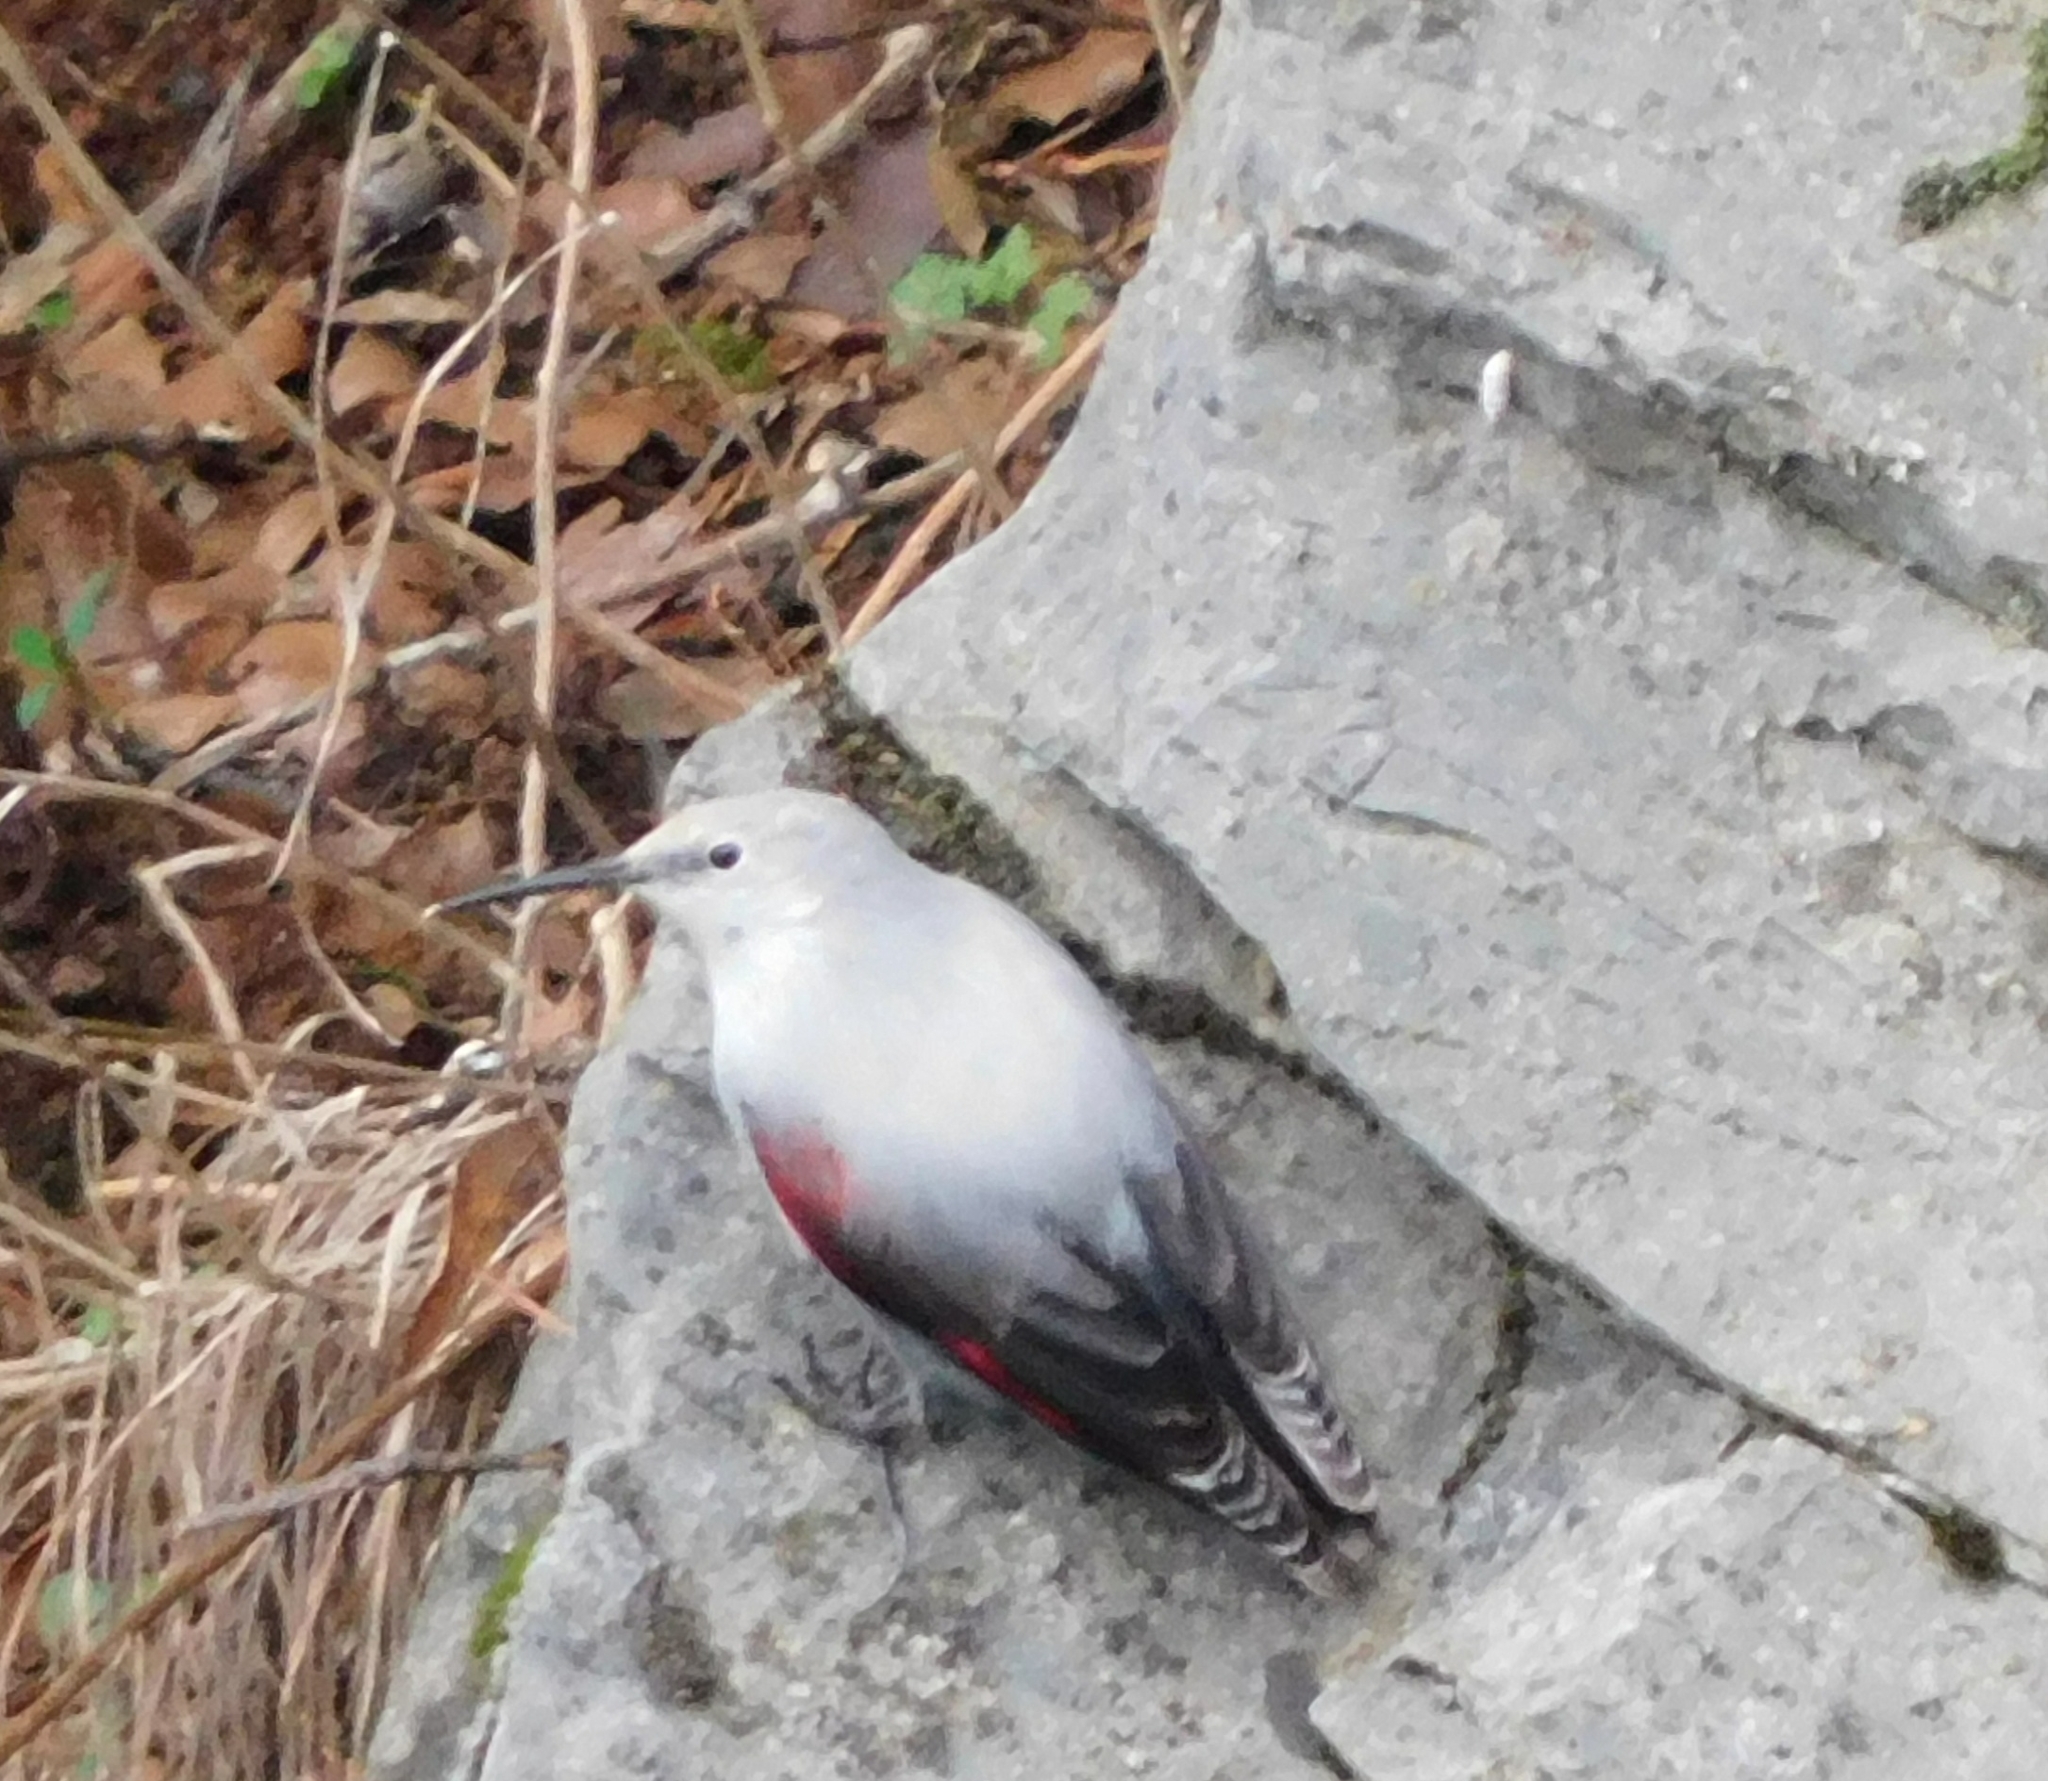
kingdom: Animalia
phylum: Chordata
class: Aves
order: Passeriformes
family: Tichodromidae
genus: Tichodroma
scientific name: Tichodroma muraria
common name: Wallcreeper
